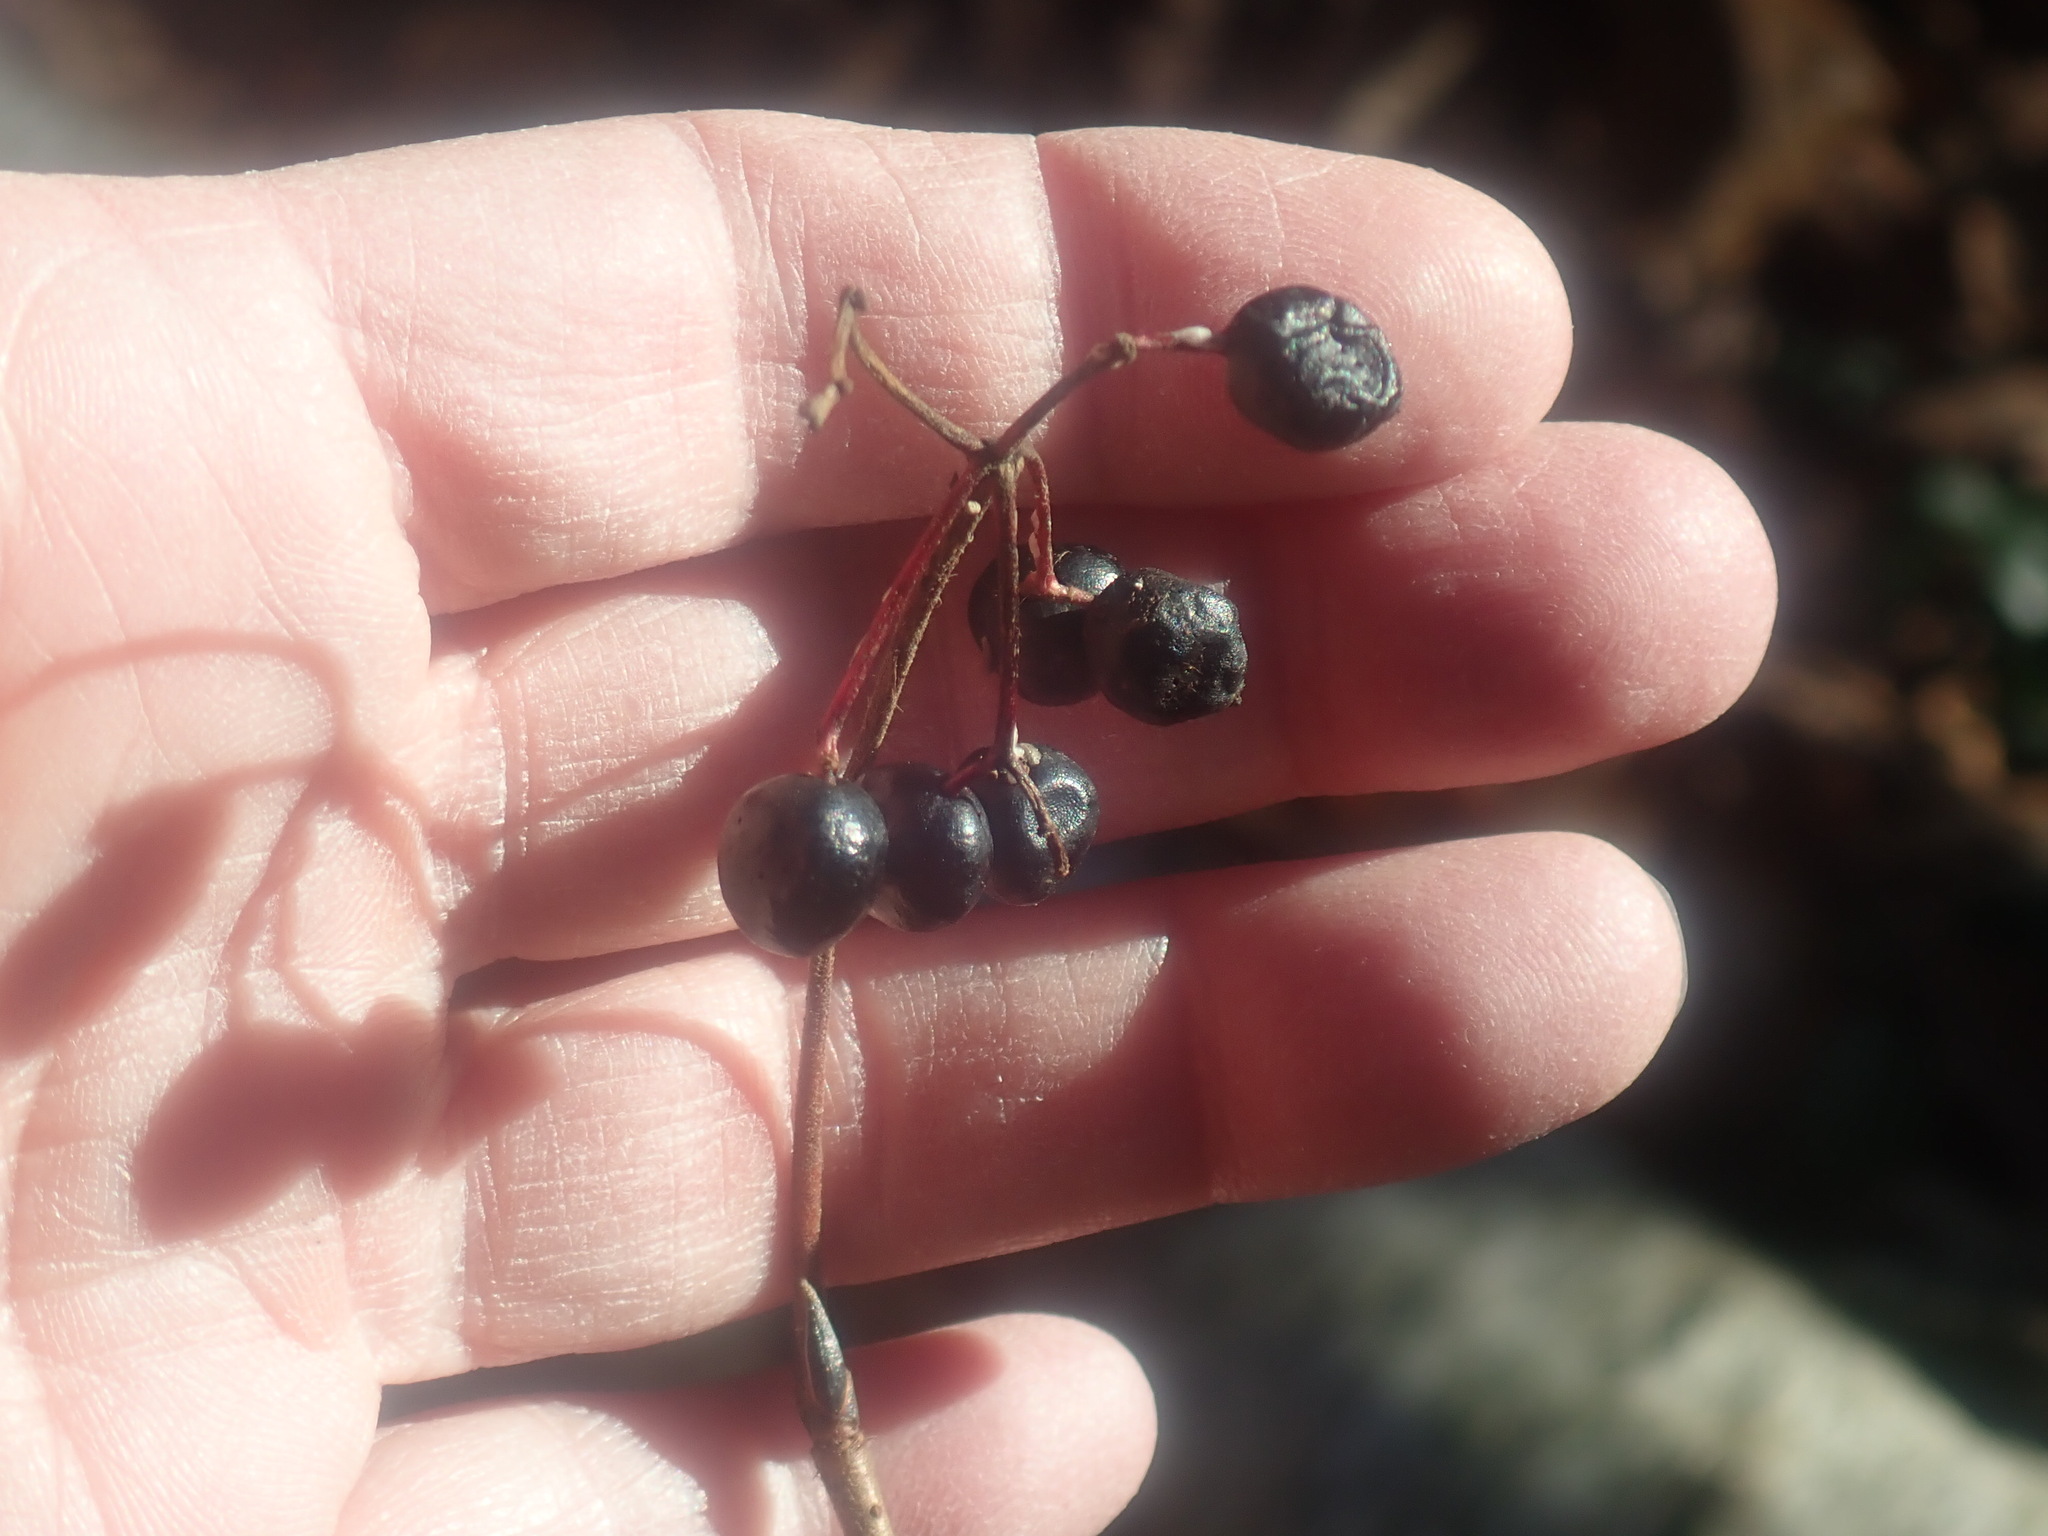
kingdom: Plantae
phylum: Tracheophyta
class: Magnoliopsida
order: Dipsacales
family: Viburnaceae
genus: Viburnum
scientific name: Viburnum acerifolium
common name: Dockmackie
